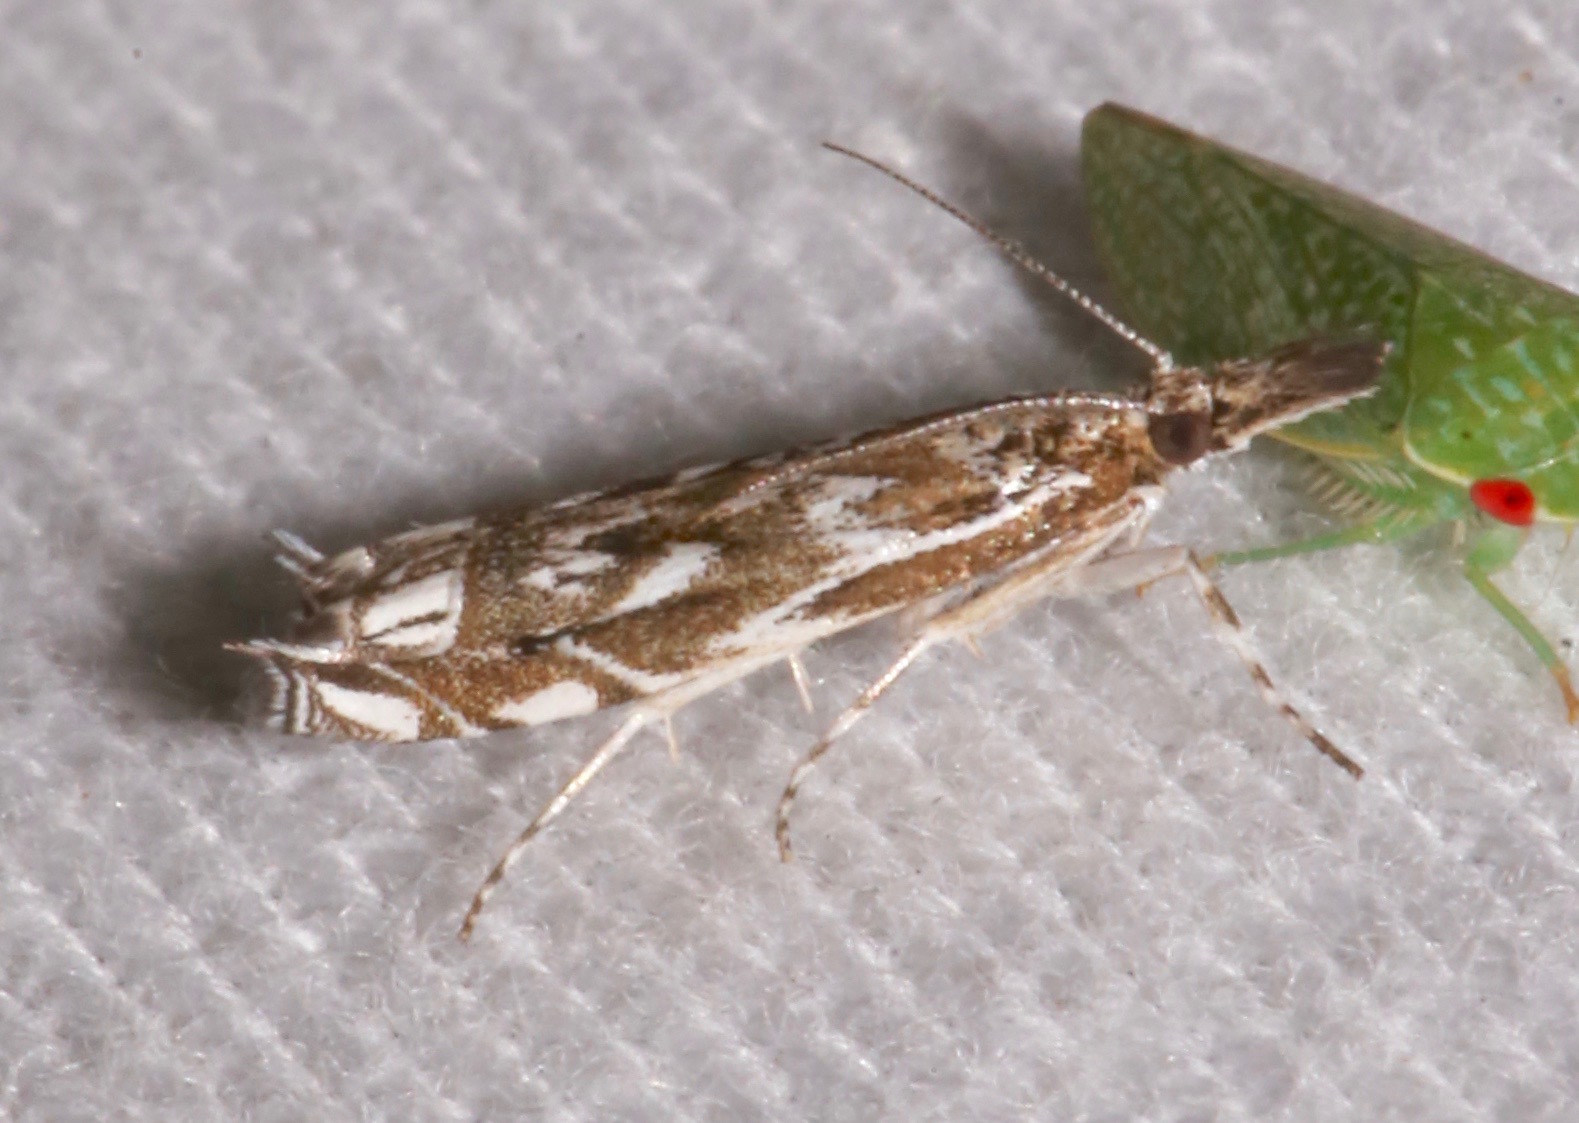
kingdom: Animalia
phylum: Arthropoda
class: Insecta
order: Lepidoptera
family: Crambidae
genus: Mesolia
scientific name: Mesolia incertella
